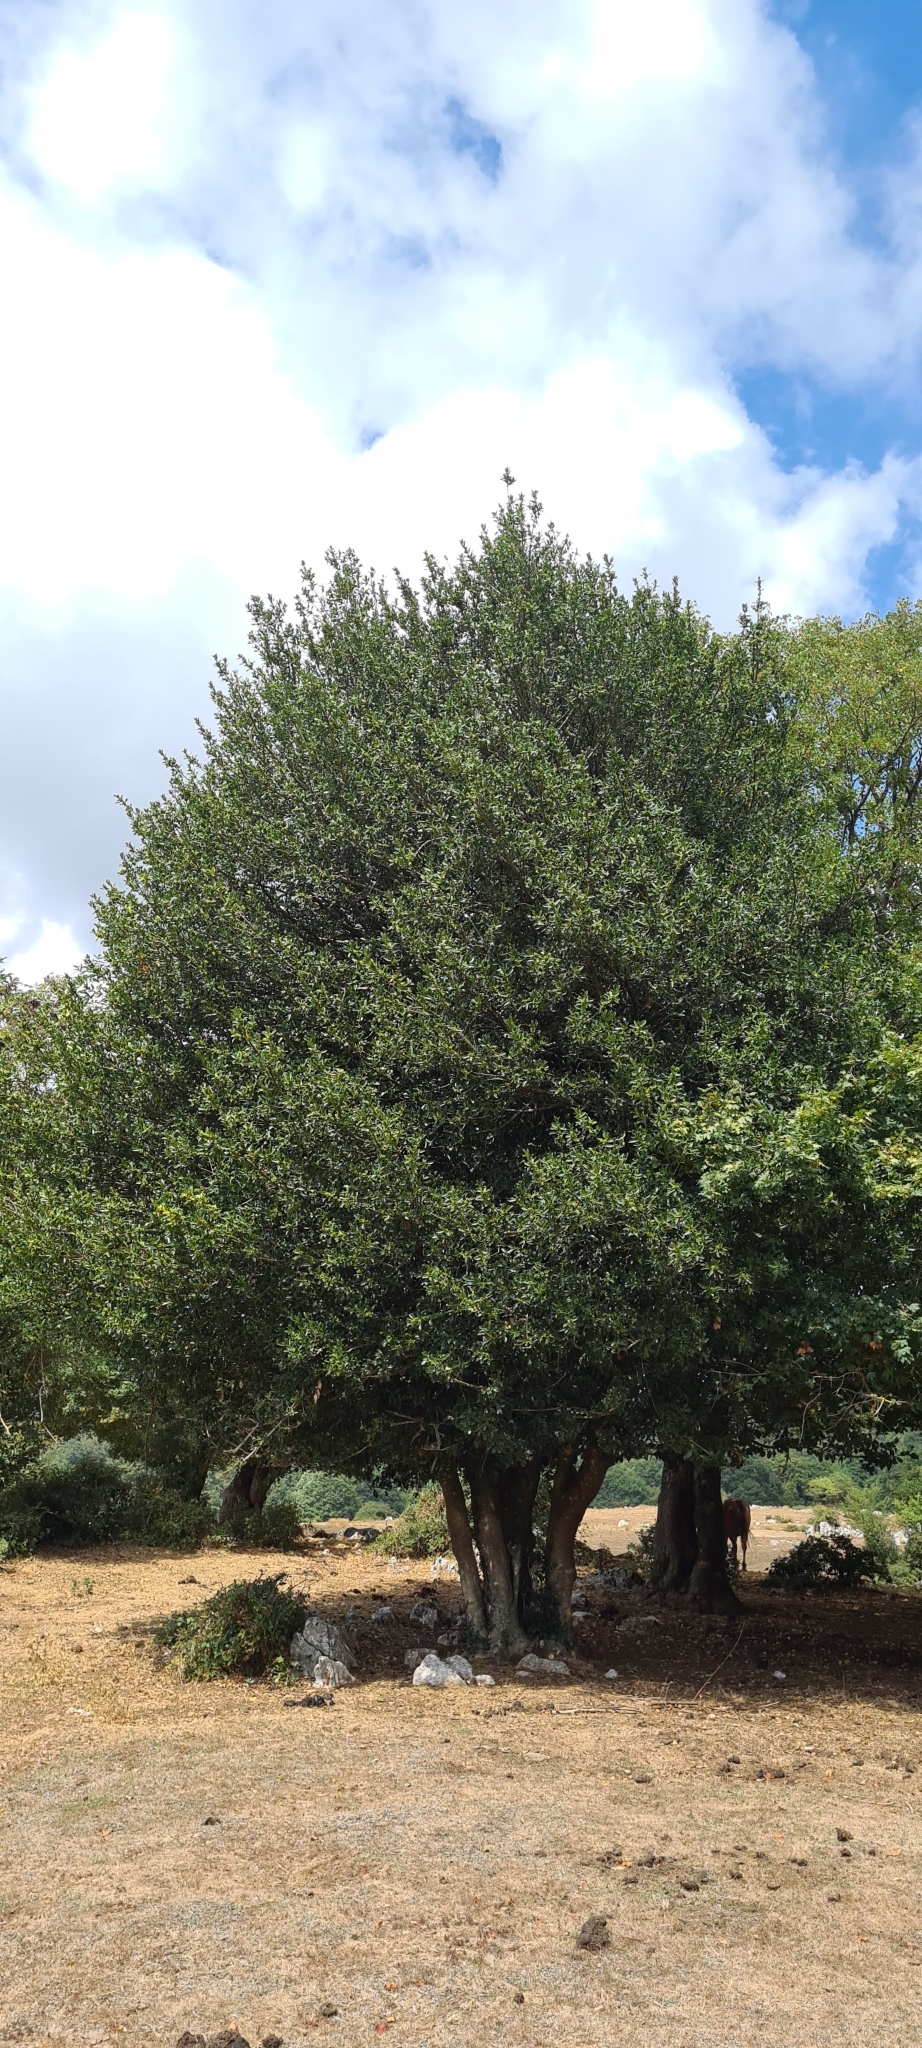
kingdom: Plantae
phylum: Tracheophyta
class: Magnoliopsida
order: Aquifoliales
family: Aquifoliaceae
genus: Ilex
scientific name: Ilex aquifolium
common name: English holly
